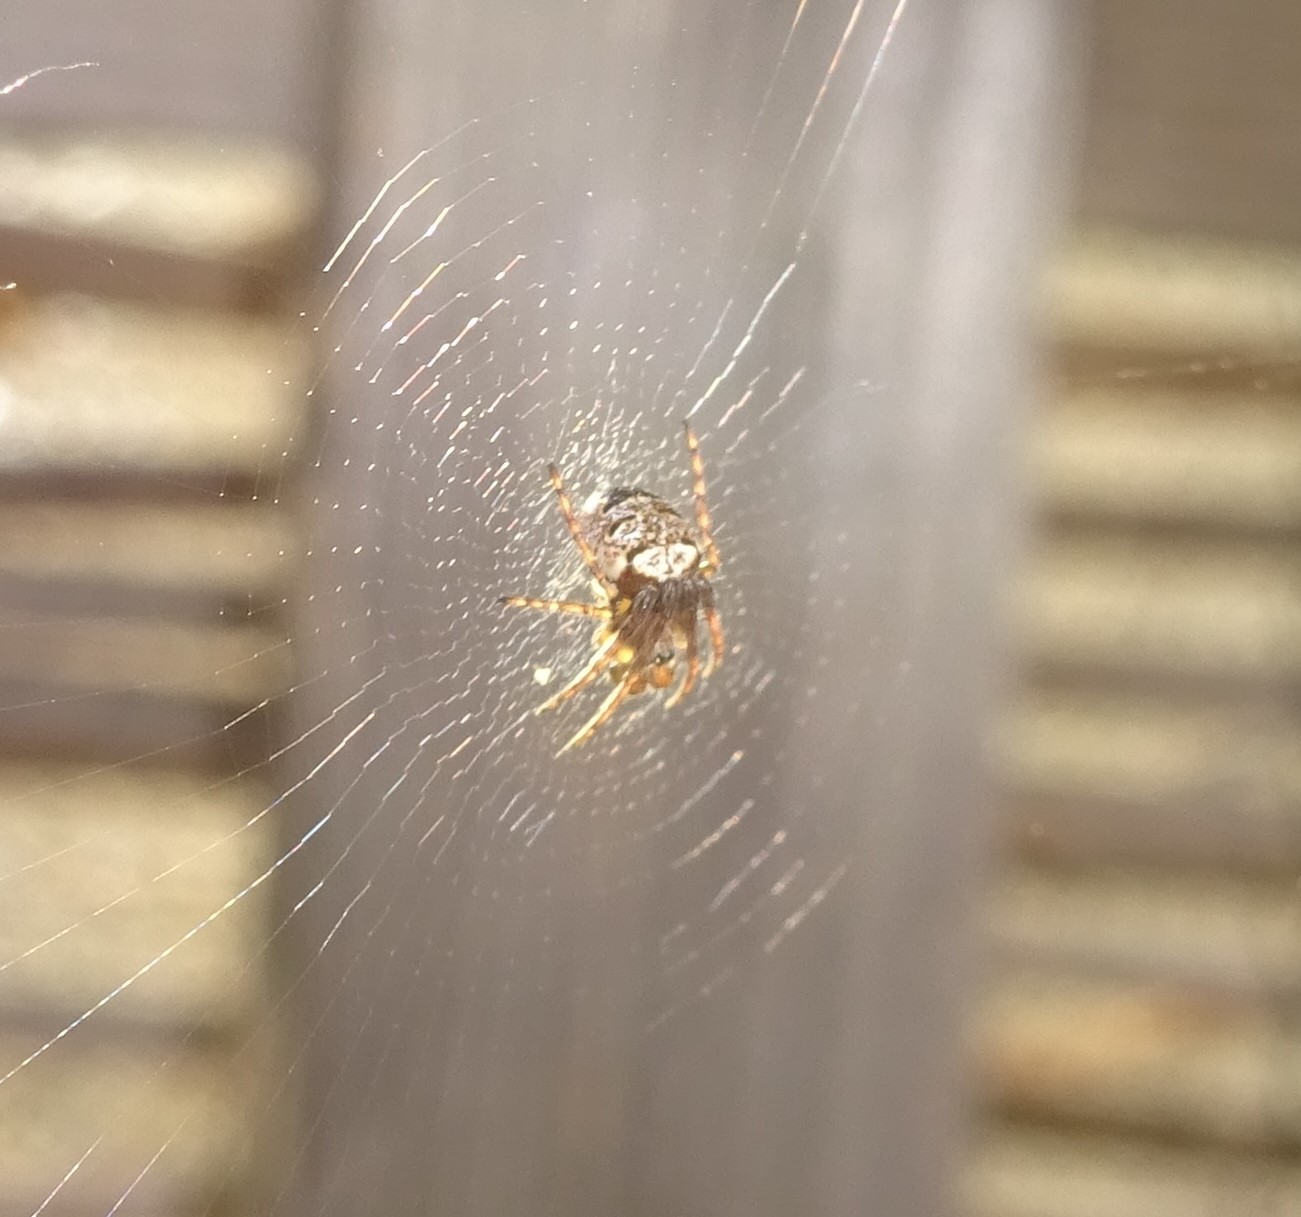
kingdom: Animalia
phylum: Arthropoda
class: Arachnida
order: Araneae
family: Araneidae
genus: Zilla
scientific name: Zilla diodia
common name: Zilla diodia
